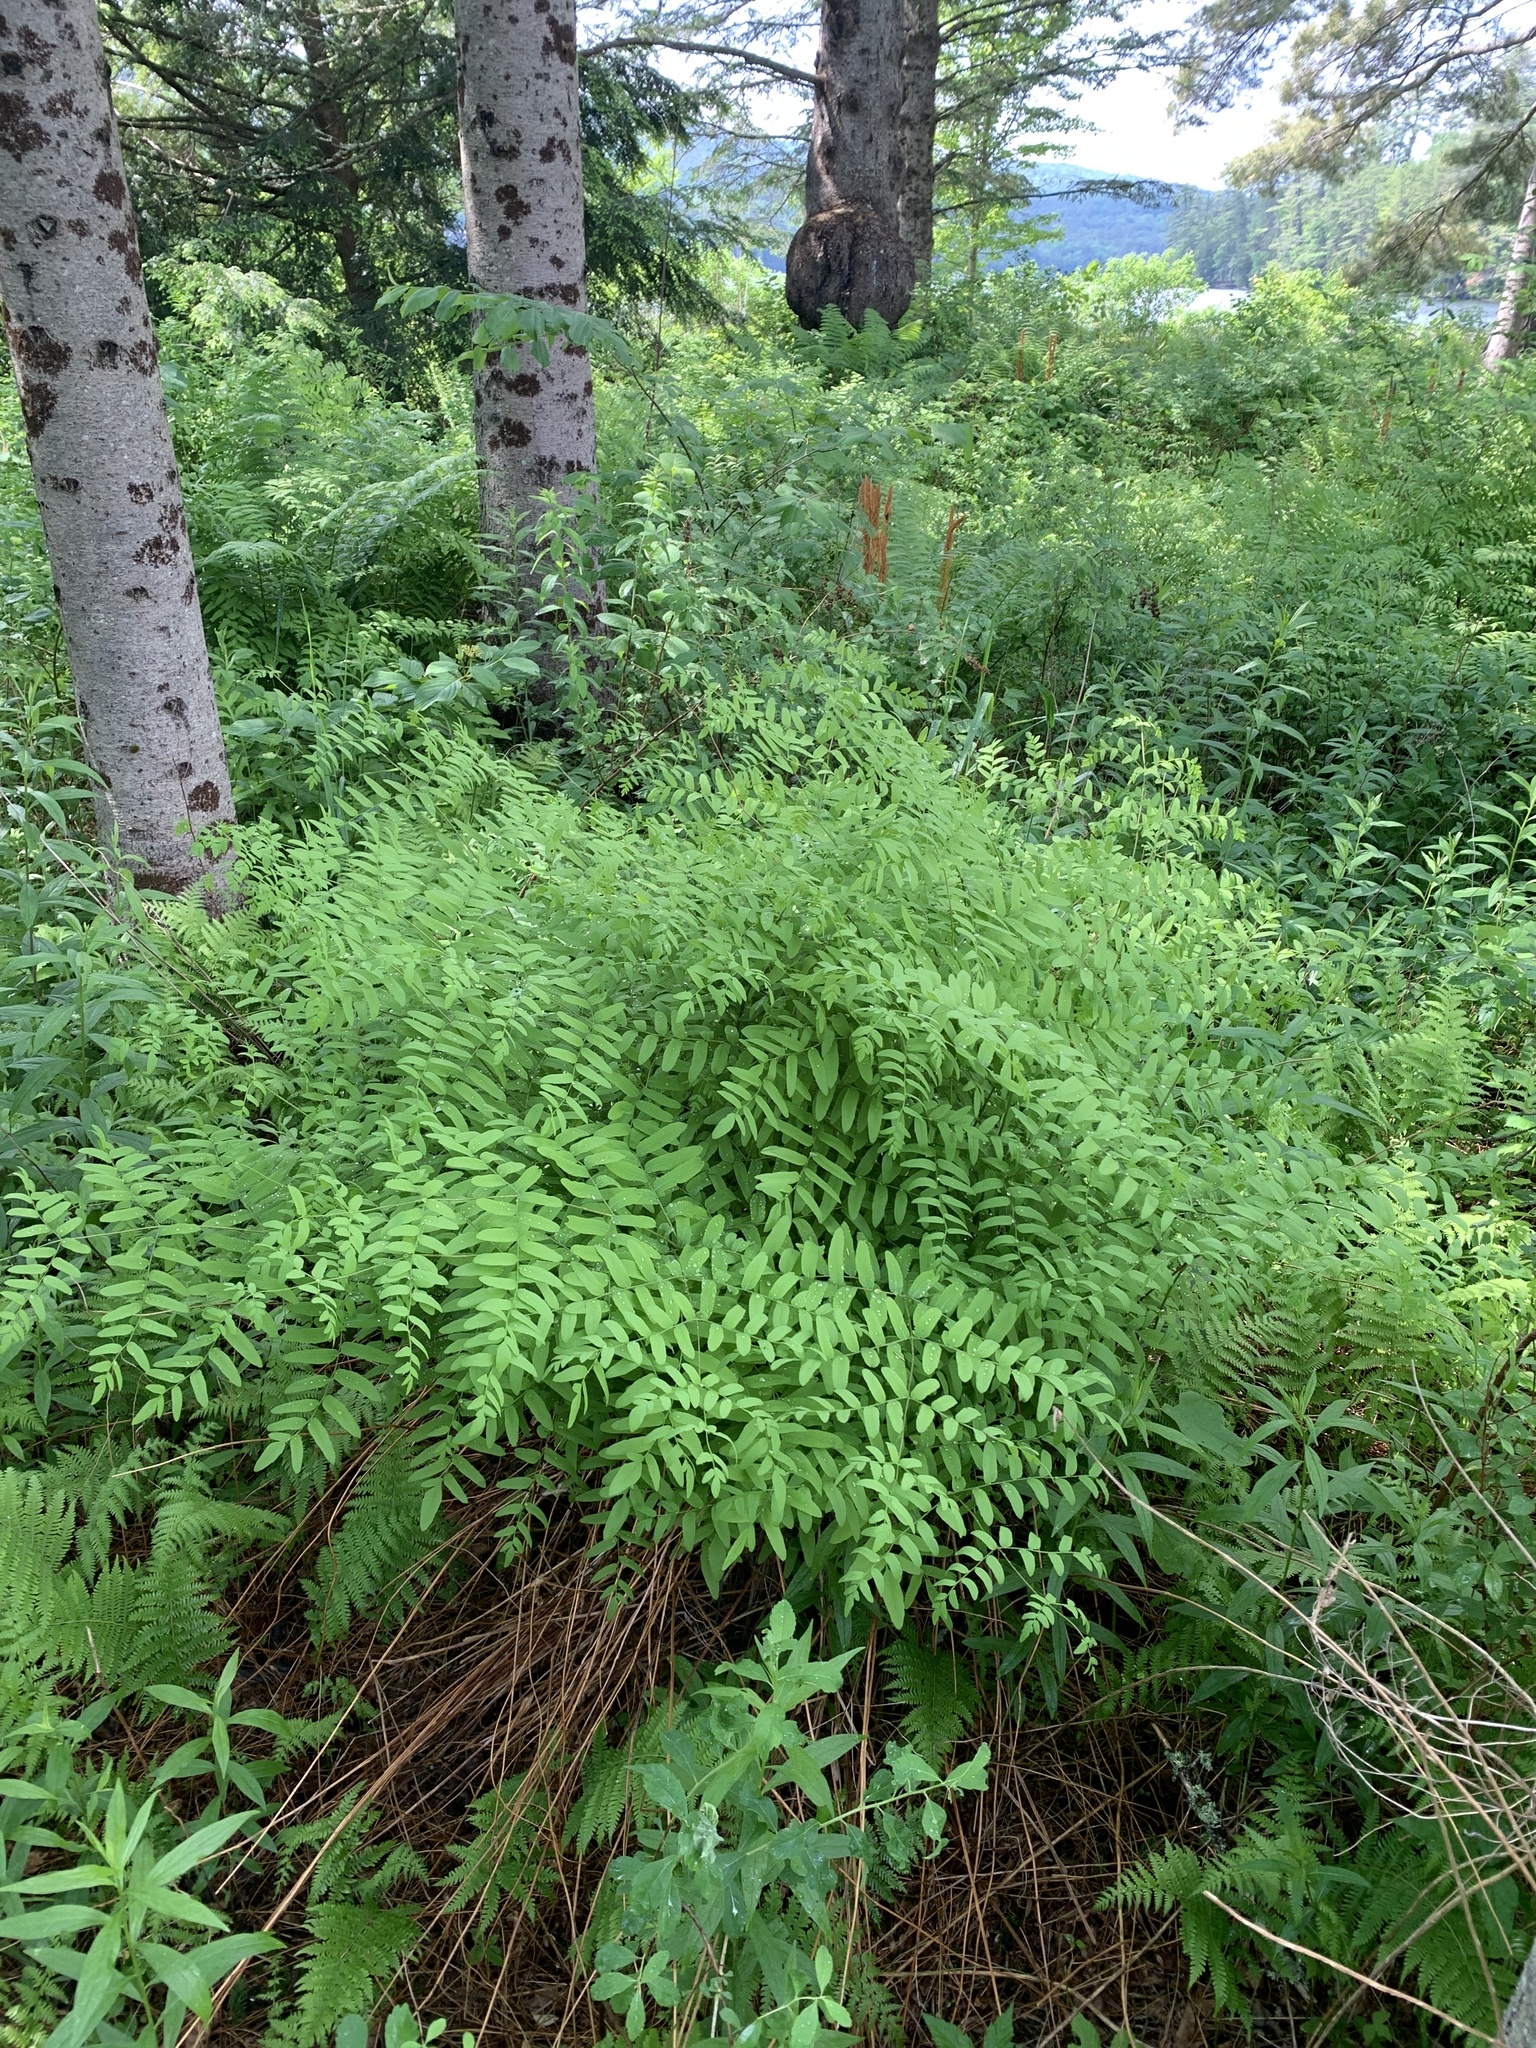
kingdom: Plantae
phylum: Tracheophyta
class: Polypodiopsida
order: Osmundales
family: Osmundaceae
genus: Osmunda
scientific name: Osmunda spectabilis
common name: American royal fern
